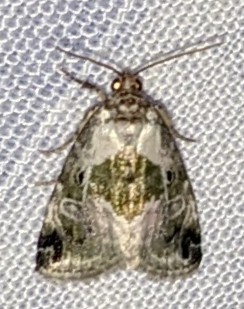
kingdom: Animalia
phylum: Arthropoda
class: Insecta
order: Lepidoptera
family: Noctuidae
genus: Maliattha
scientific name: Maliattha synochitis
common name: Black-dotted glyph
